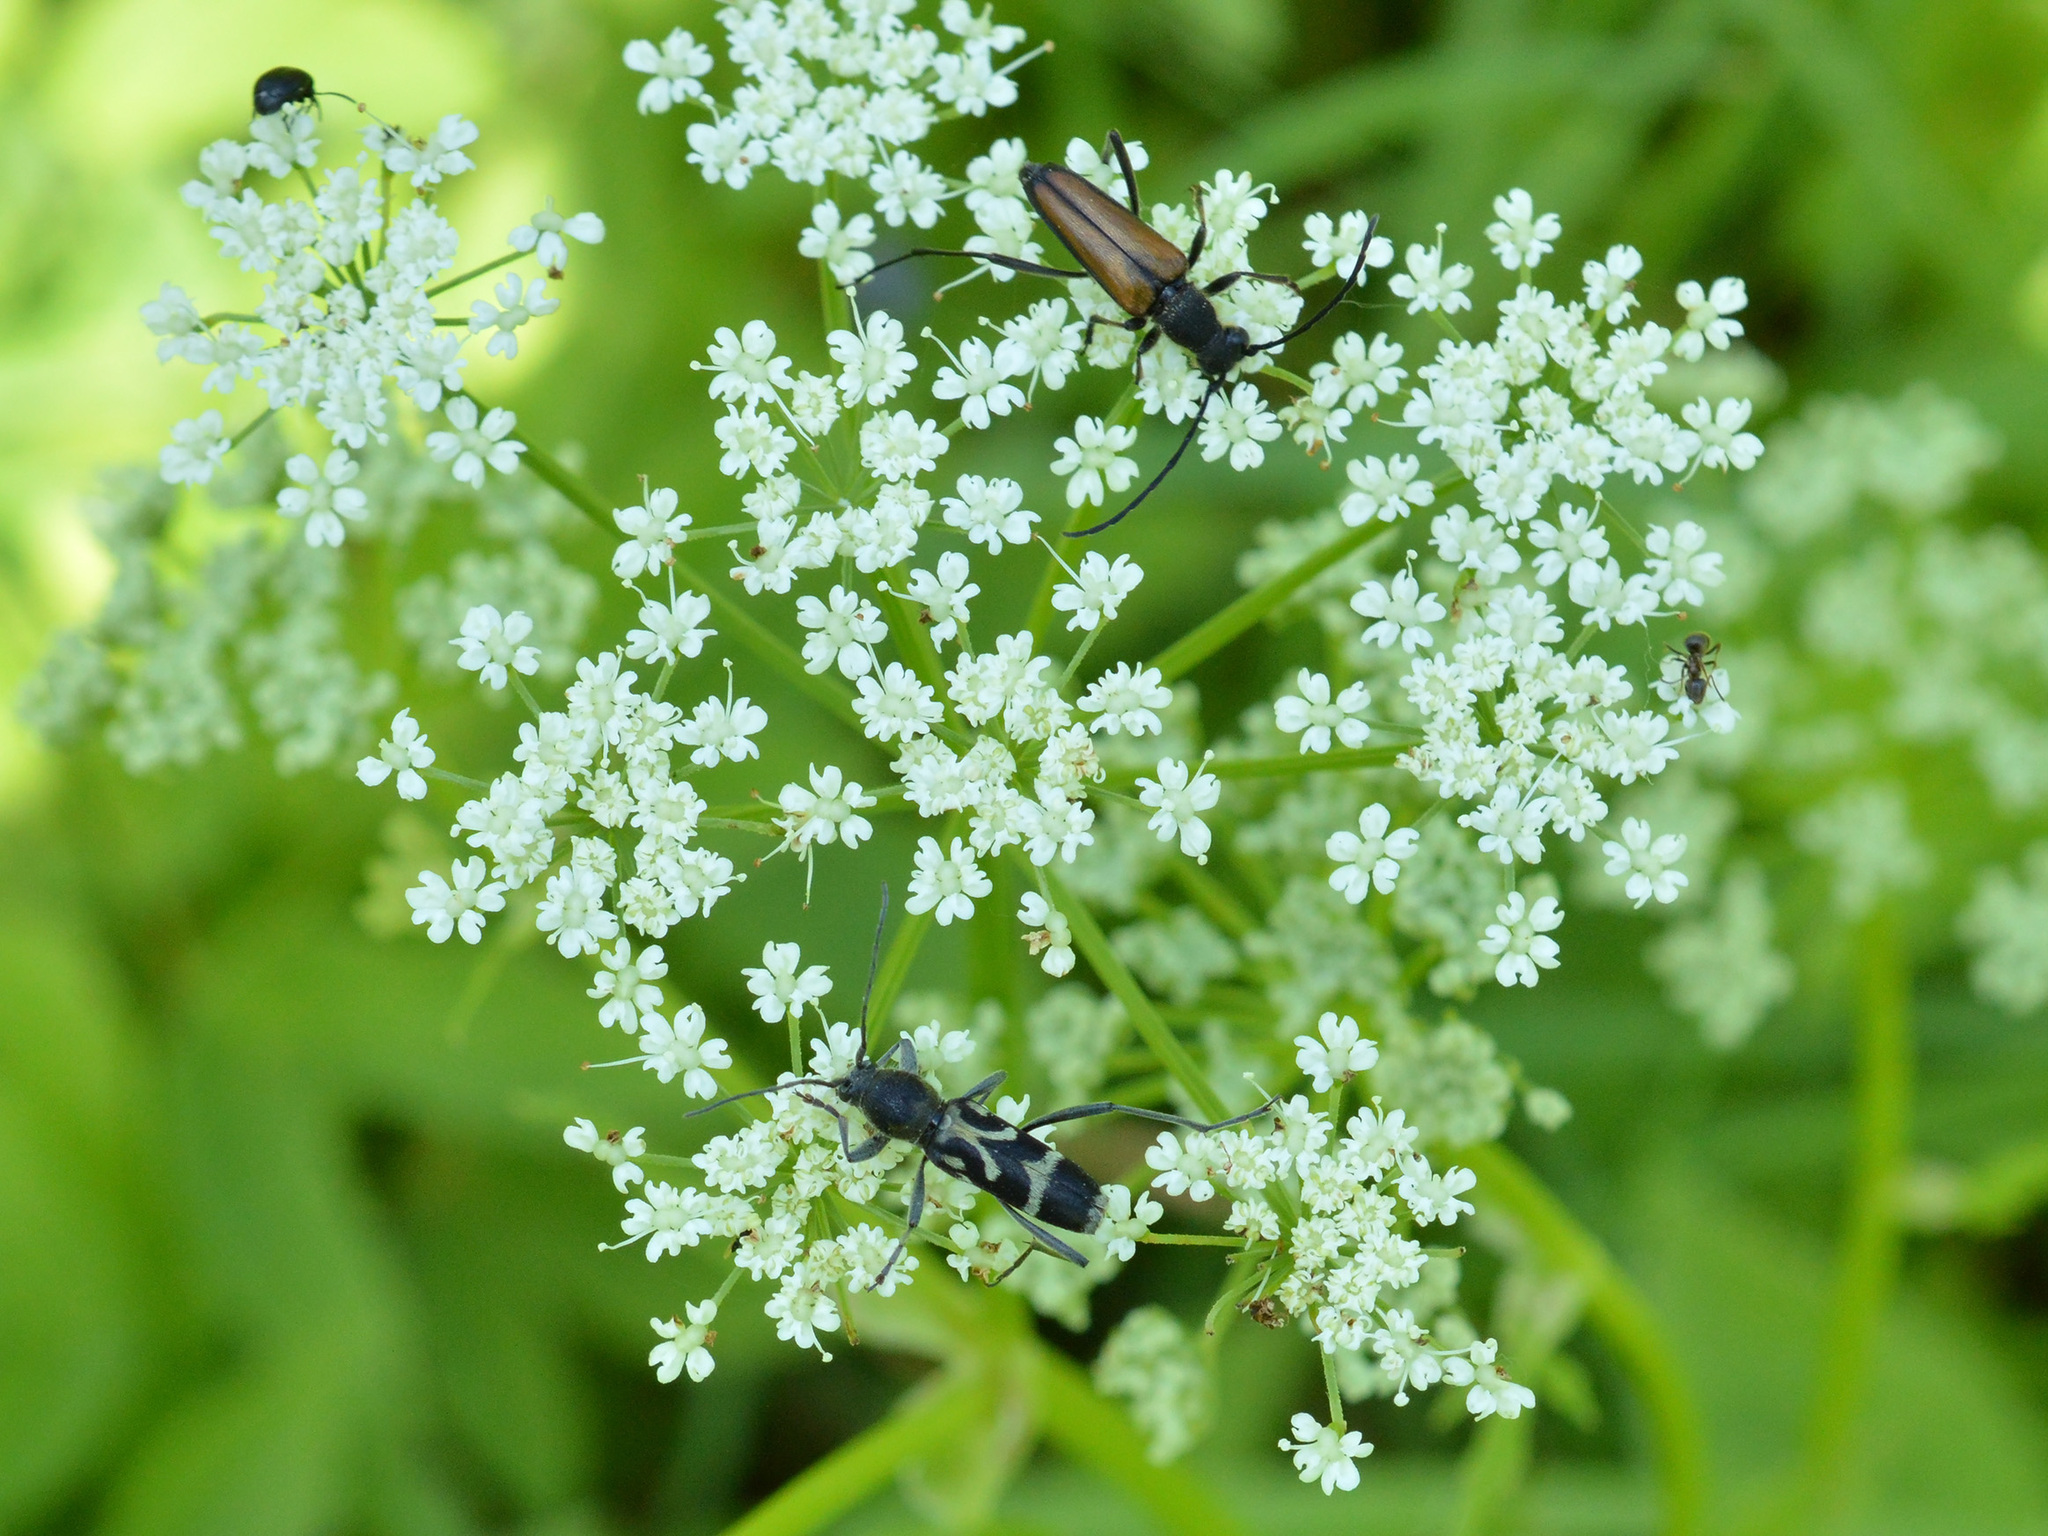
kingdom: Animalia
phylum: Arthropoda
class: Insecta
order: Coleoptera
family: Cerambycidae
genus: Anastrangalia
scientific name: Anastrangalia dubia
